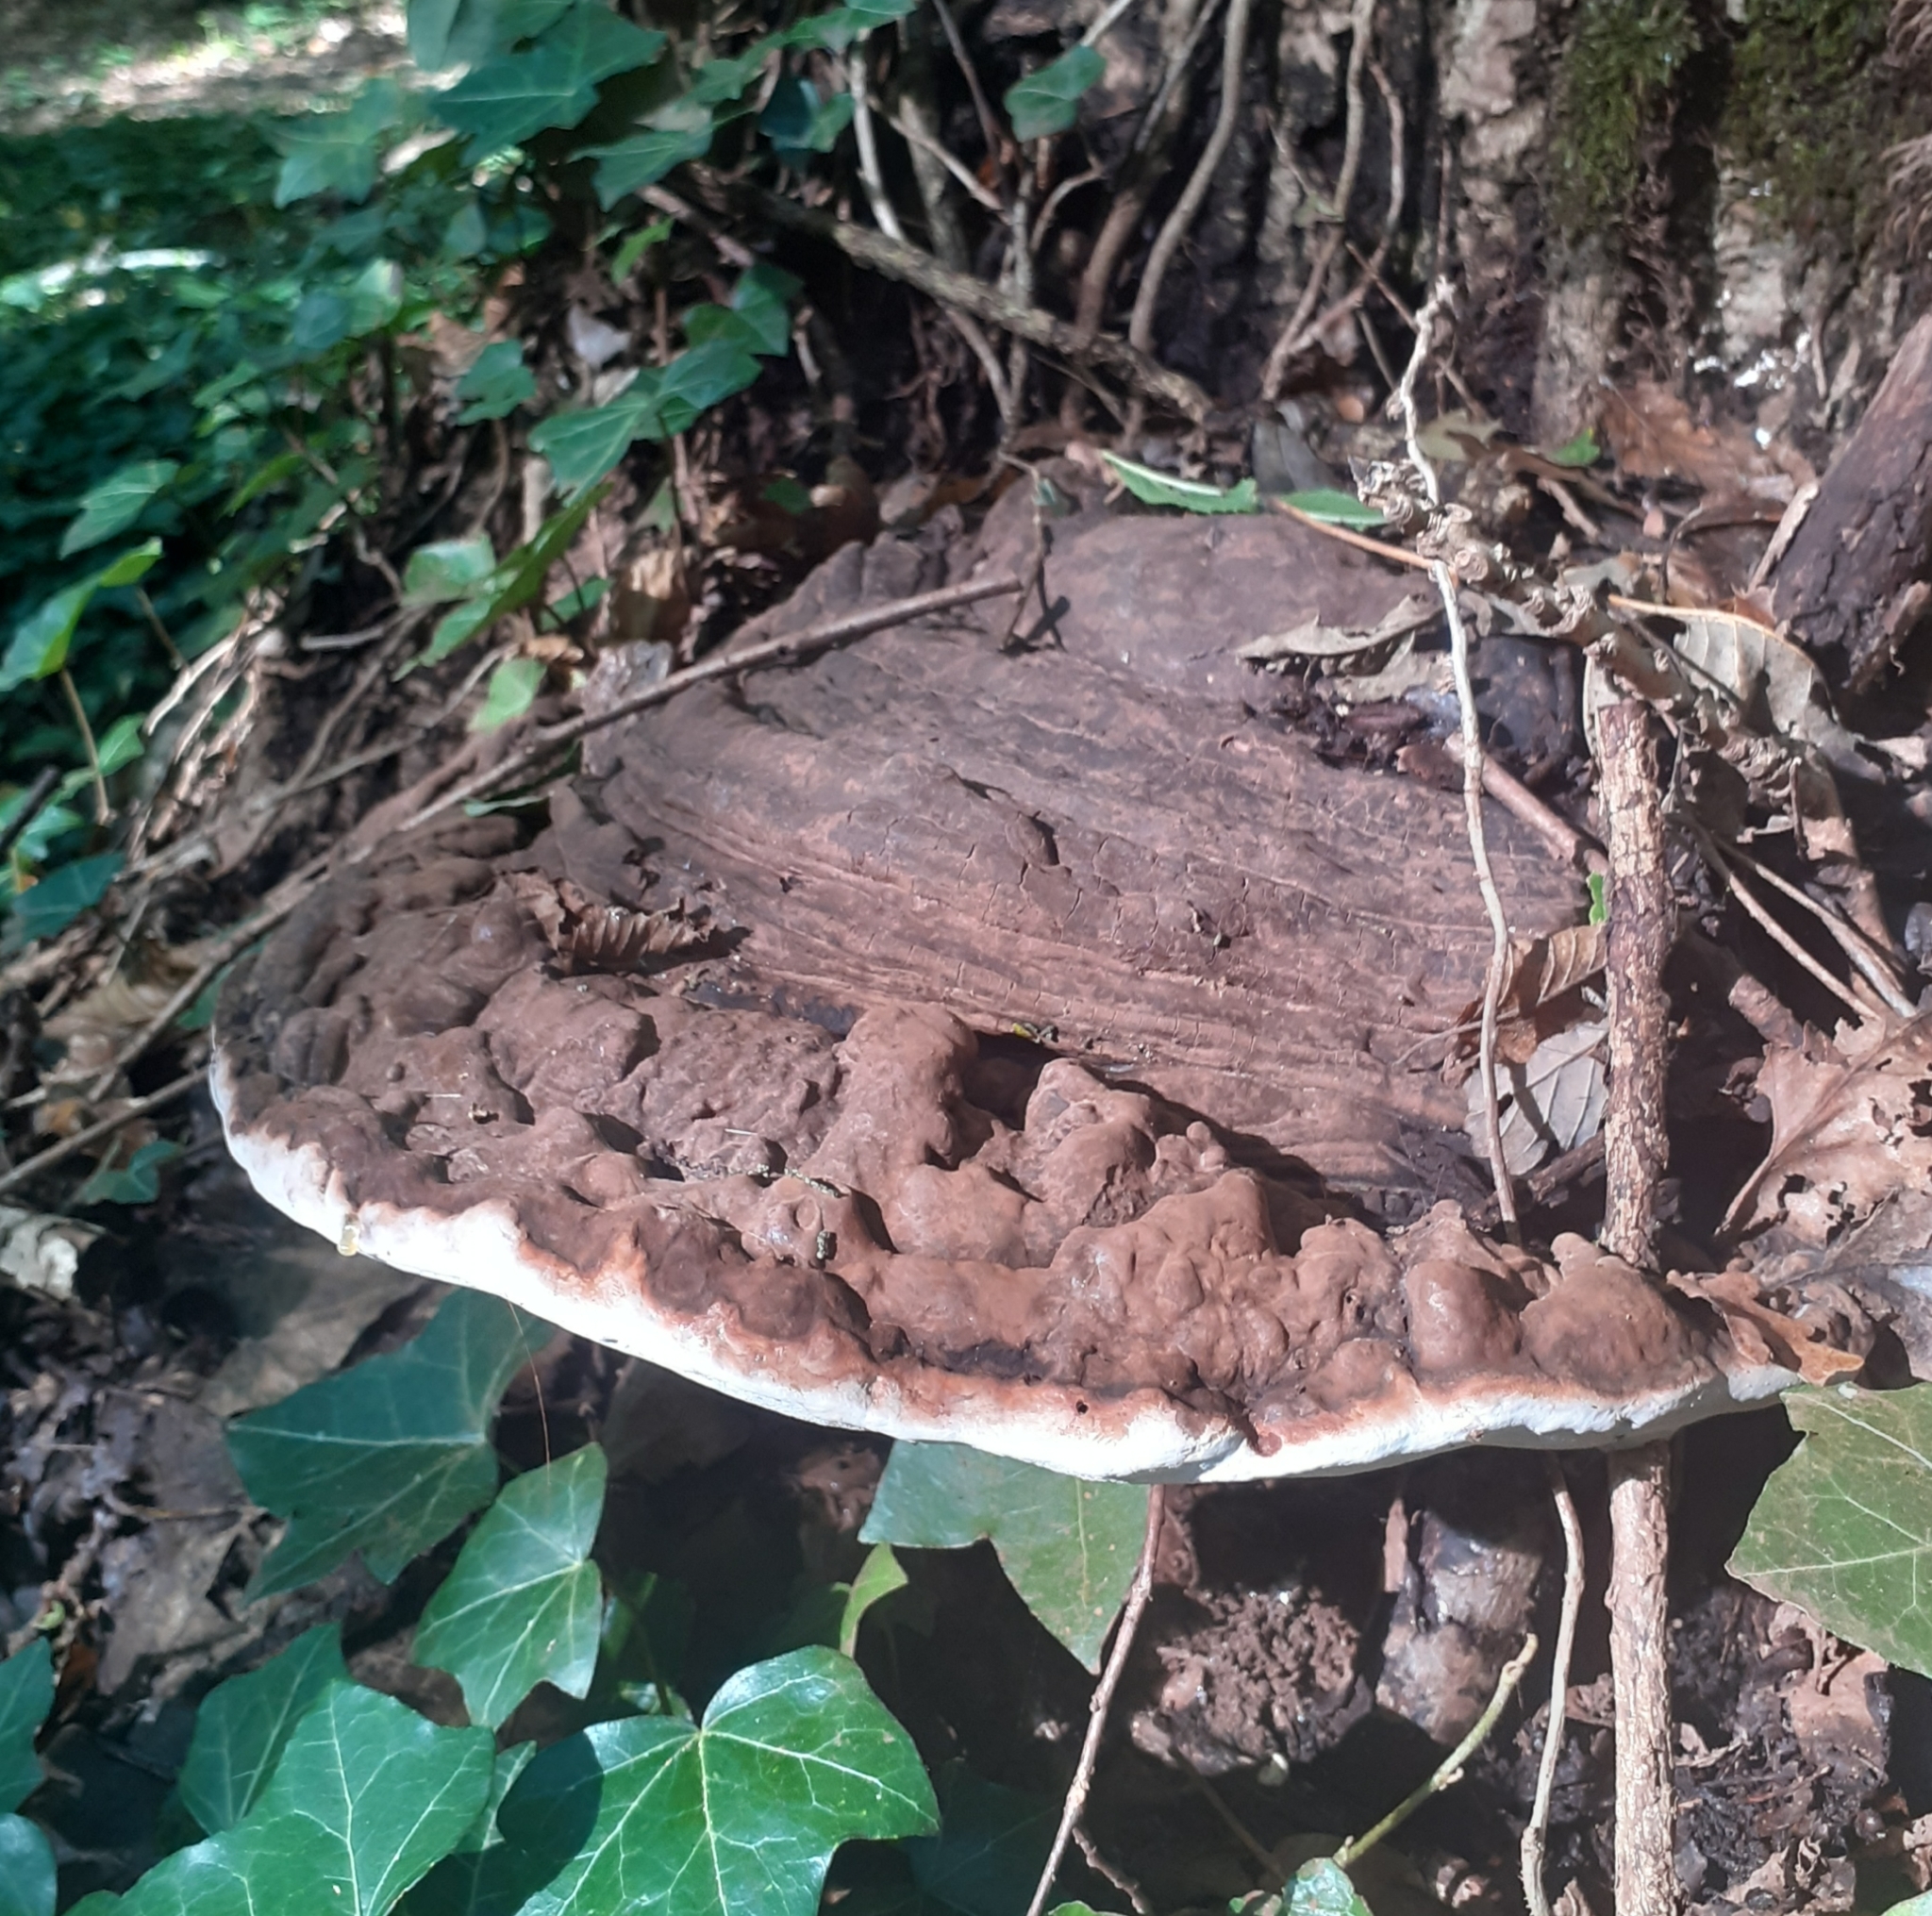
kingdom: Fungi
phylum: Basidiomycota
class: Agaricomycetes
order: Polyporales
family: Polyporaceae
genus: Ganoderma
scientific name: Ganoderma applanatum
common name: Artist's bracket
